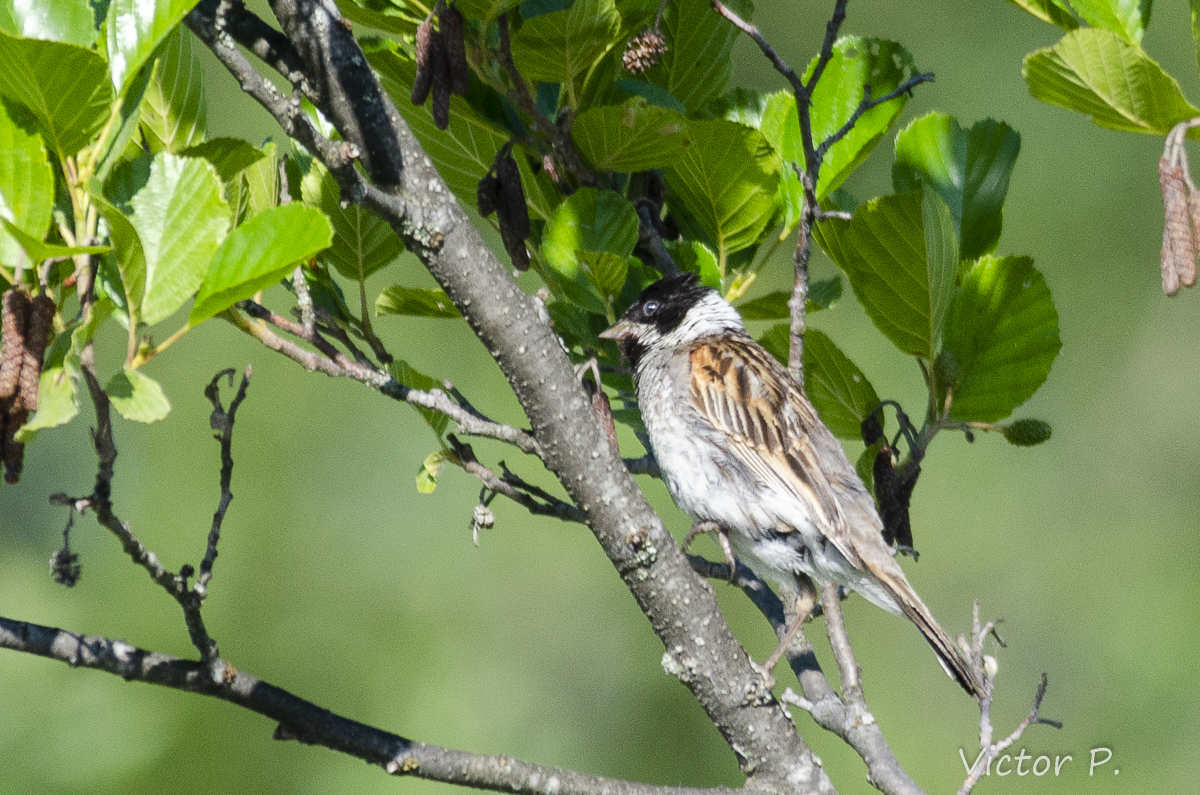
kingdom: Animalia
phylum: Chordata
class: Aves
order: Passeriformes
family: Emberizidae
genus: Emberiza
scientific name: Emberiza schoeniclus
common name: Reed bunting
